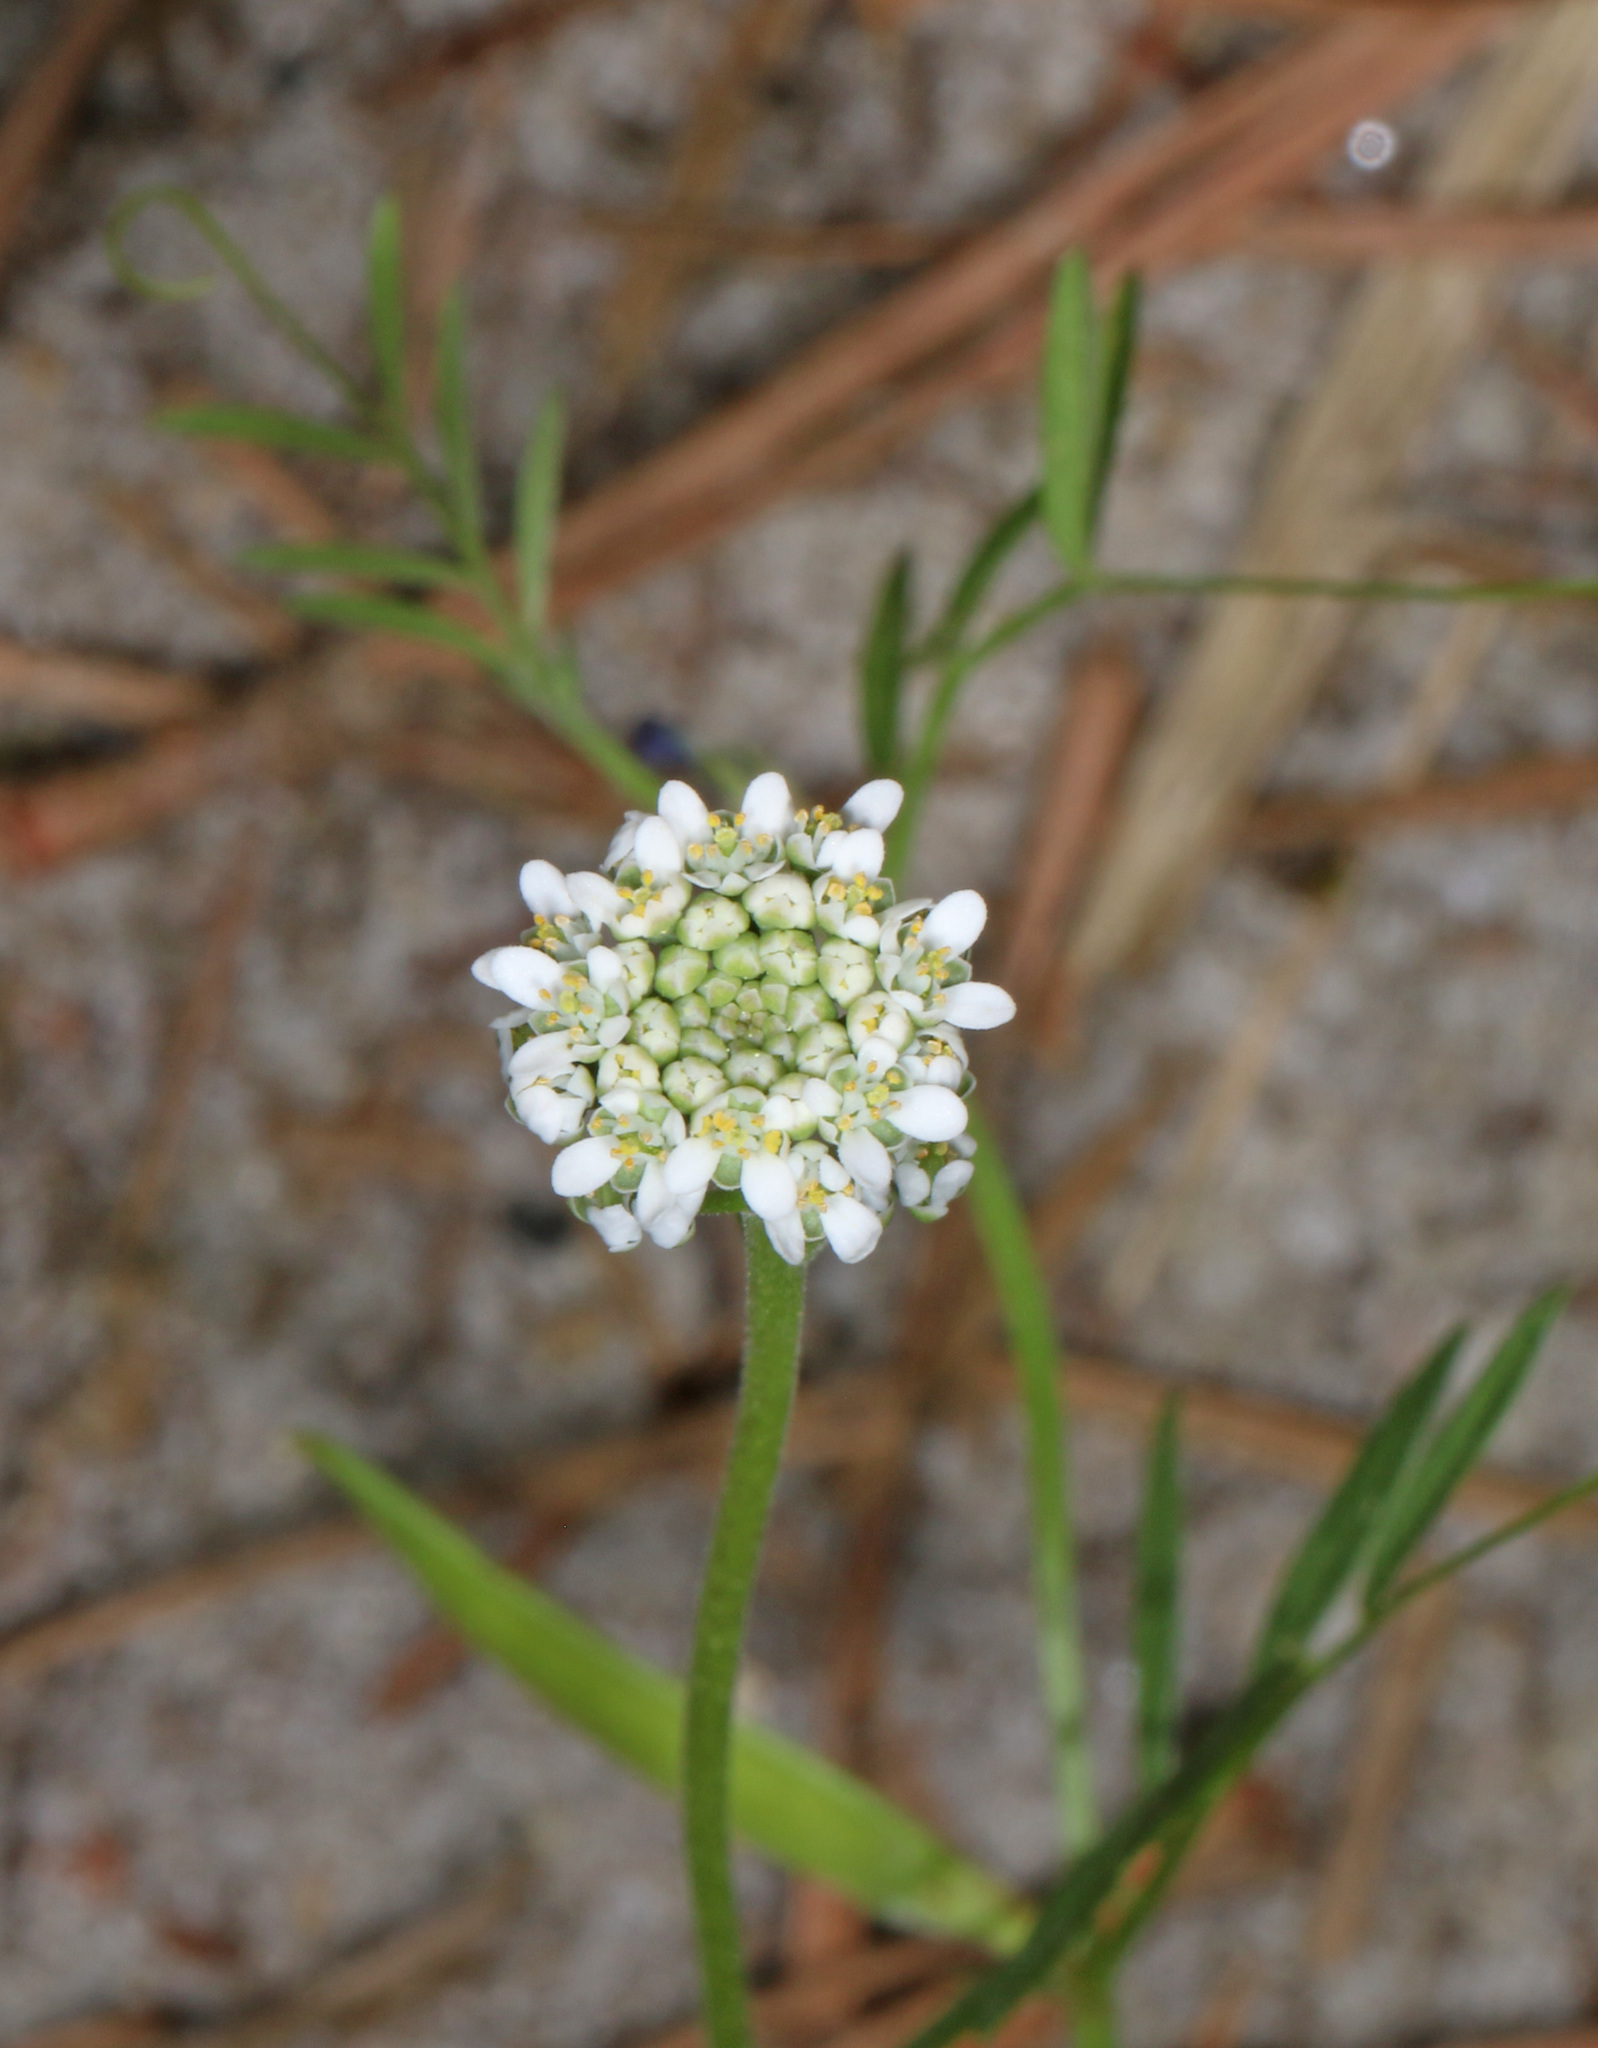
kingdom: Plantae
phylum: Tracheophyta
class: Magnoliopsida
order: Brassicales
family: Brassicaceae
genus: Teesdalia
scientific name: Teesdalia nudicaulis
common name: Shepherd's cress
